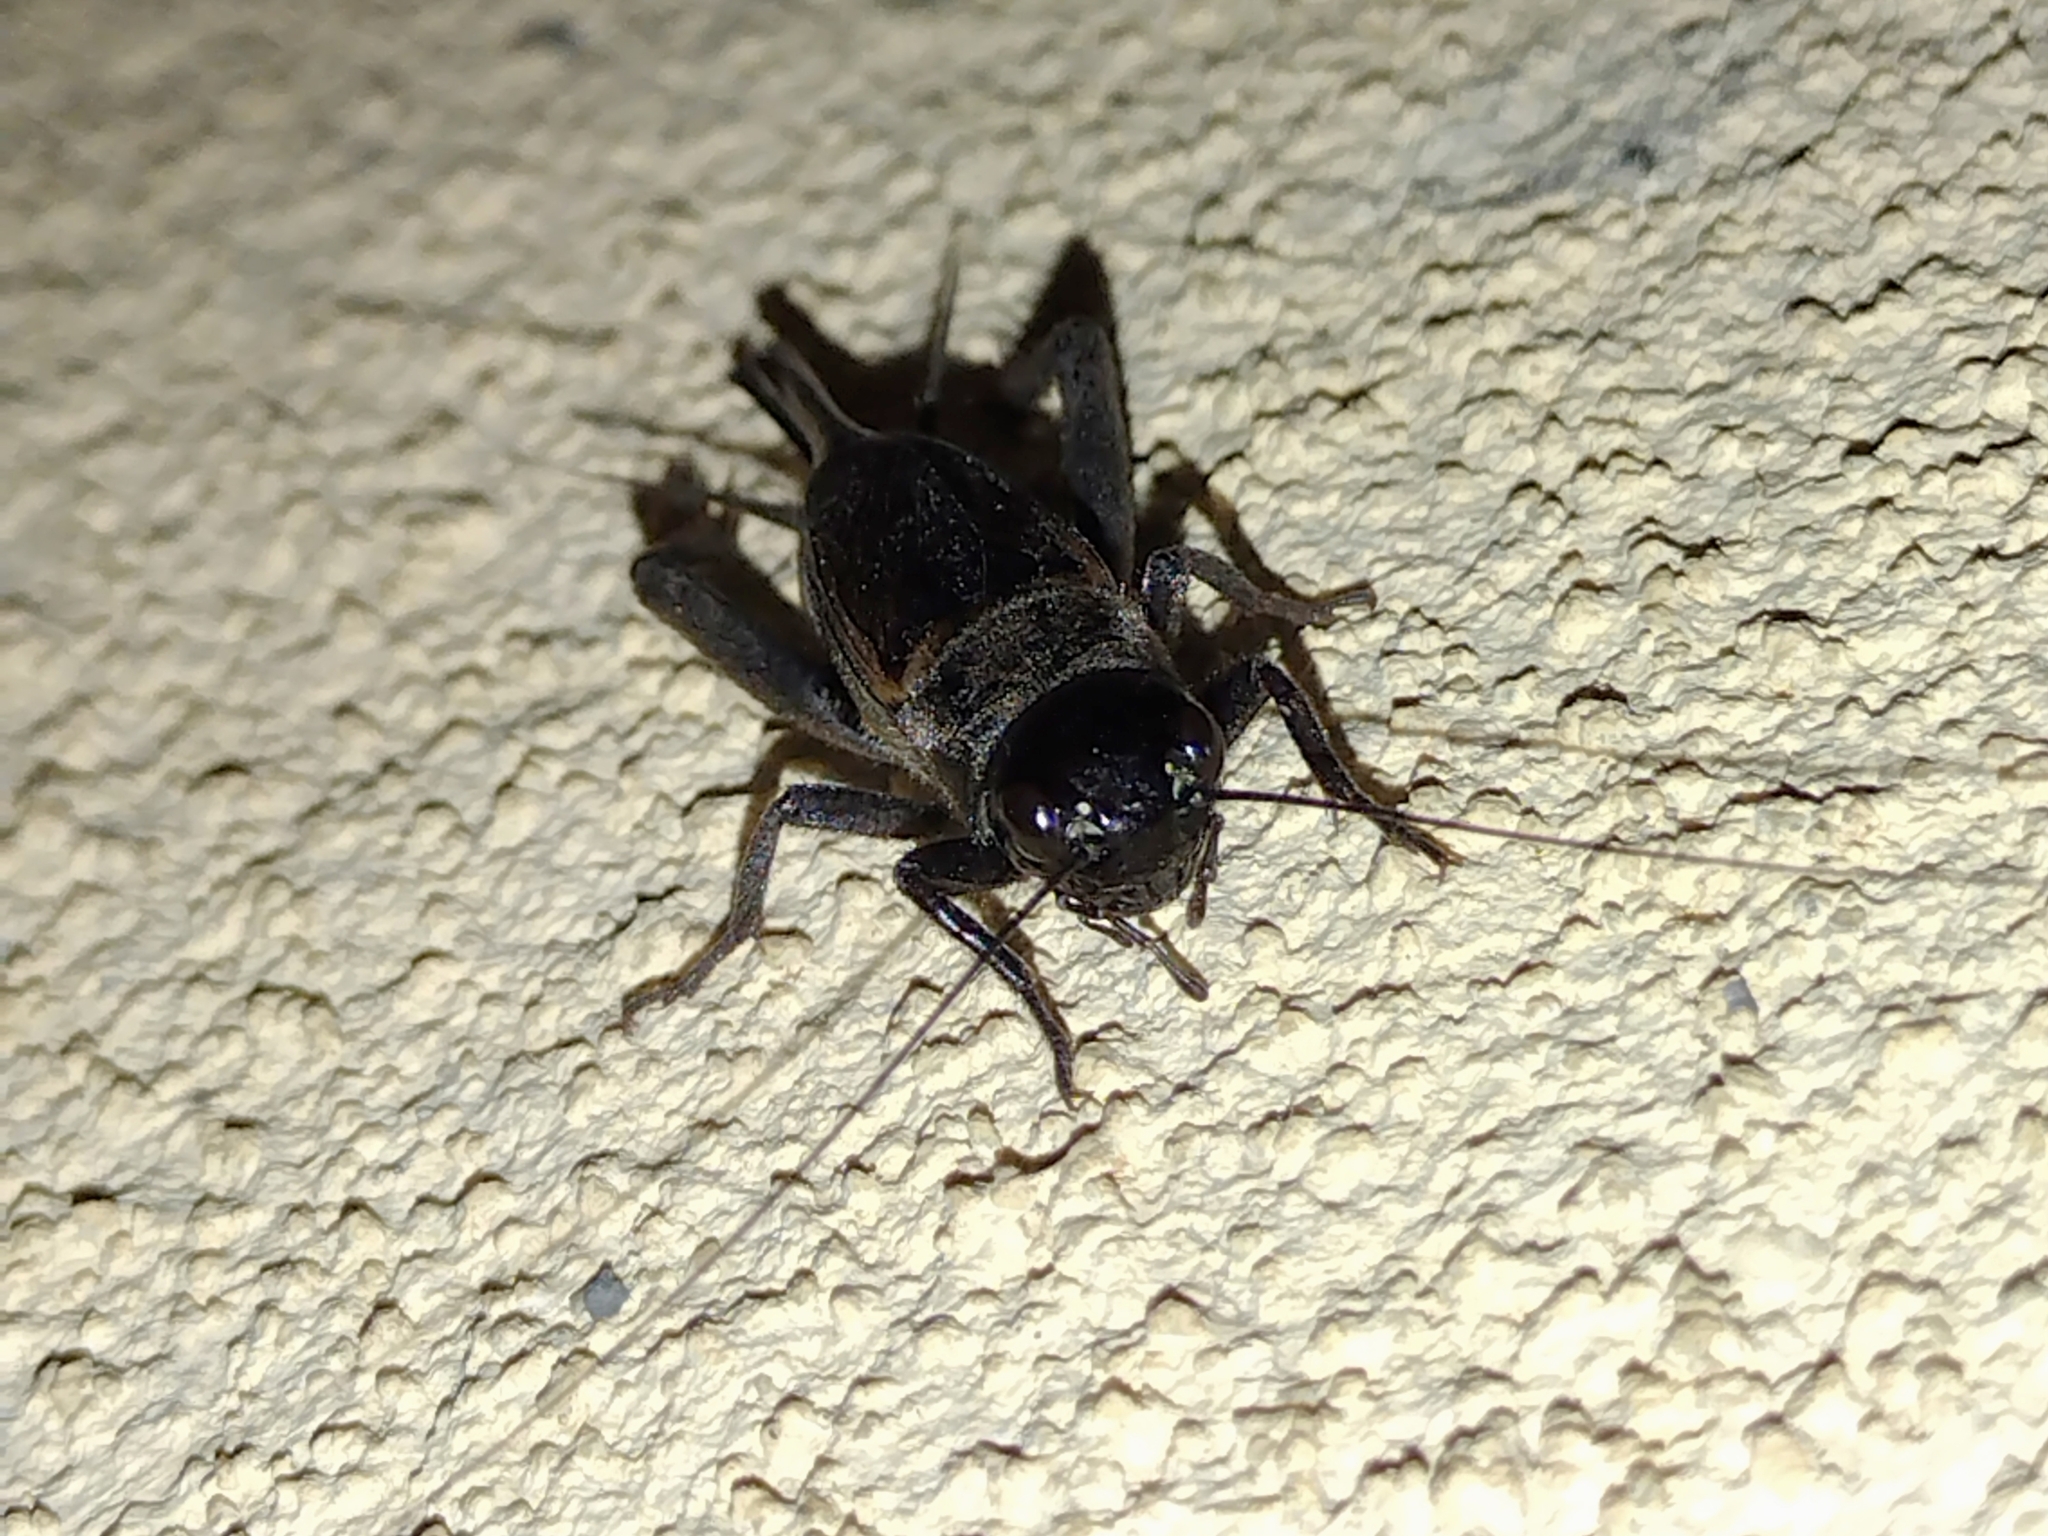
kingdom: Animalia
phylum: Arthropoda
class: Insecta
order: Orthoptera
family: Gryllidae
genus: Gryllus
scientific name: Gryllus
